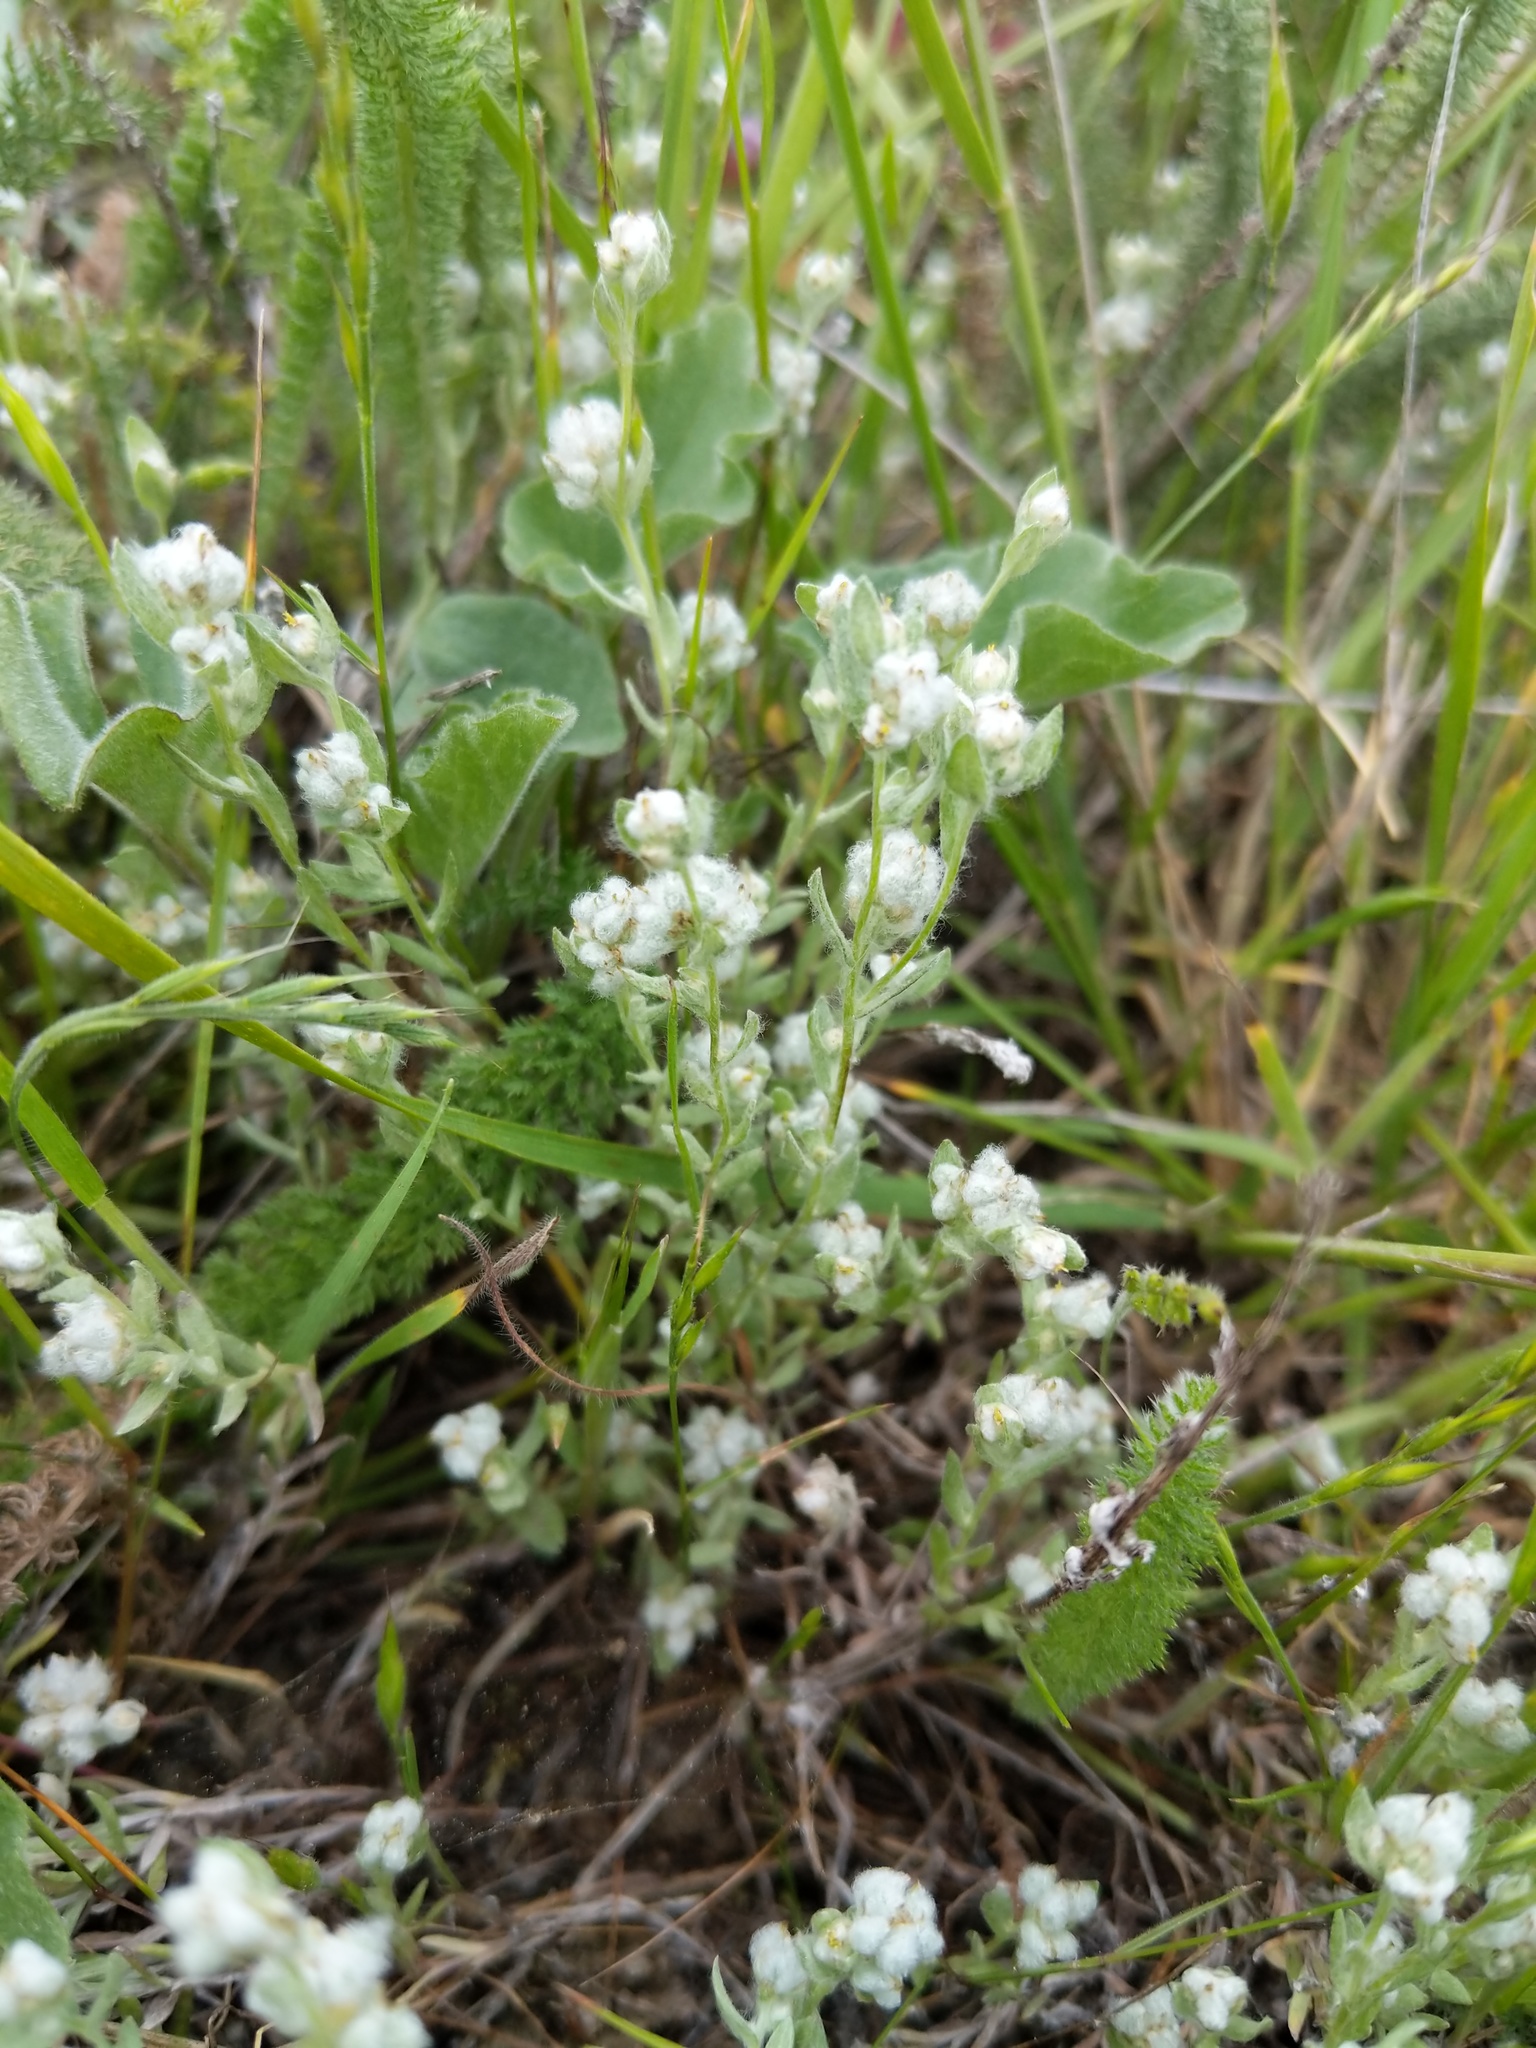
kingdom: Plantae
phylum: Tracheophyta
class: Magnoliopsida
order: Asterales
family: Asteraceae
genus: Bombycilaena
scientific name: Bombycilaena californica
